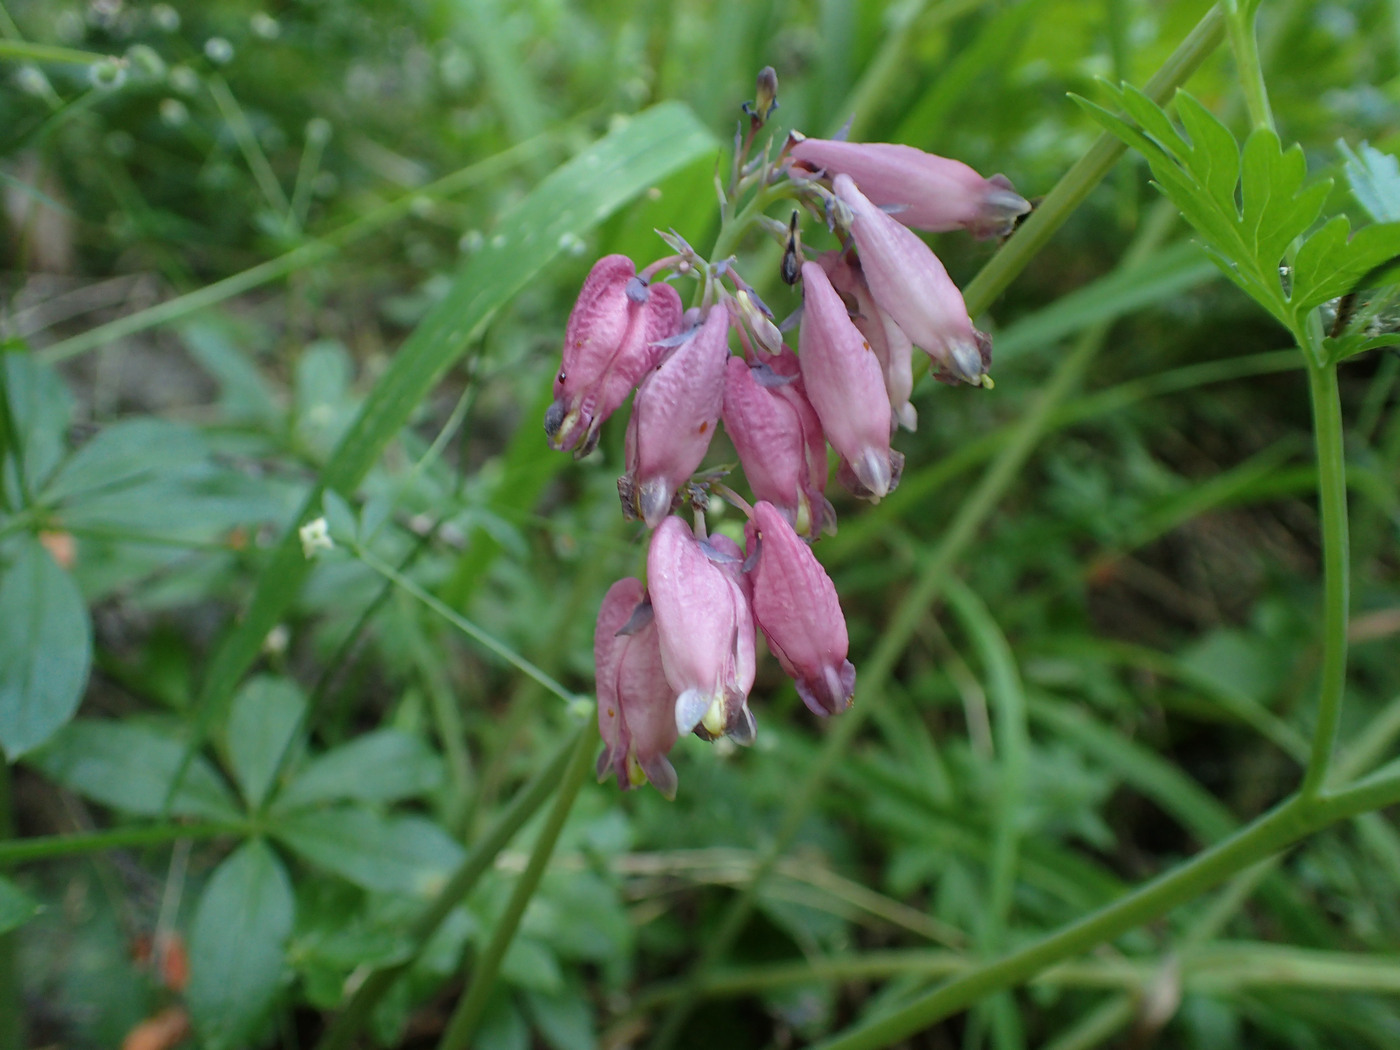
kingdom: Plantae
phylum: Tracheophyta
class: Magnoliopsida
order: Ranunculales
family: Papaveraceae
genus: Dicentra
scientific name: Dicentra formosa
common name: Bleeding-heart
